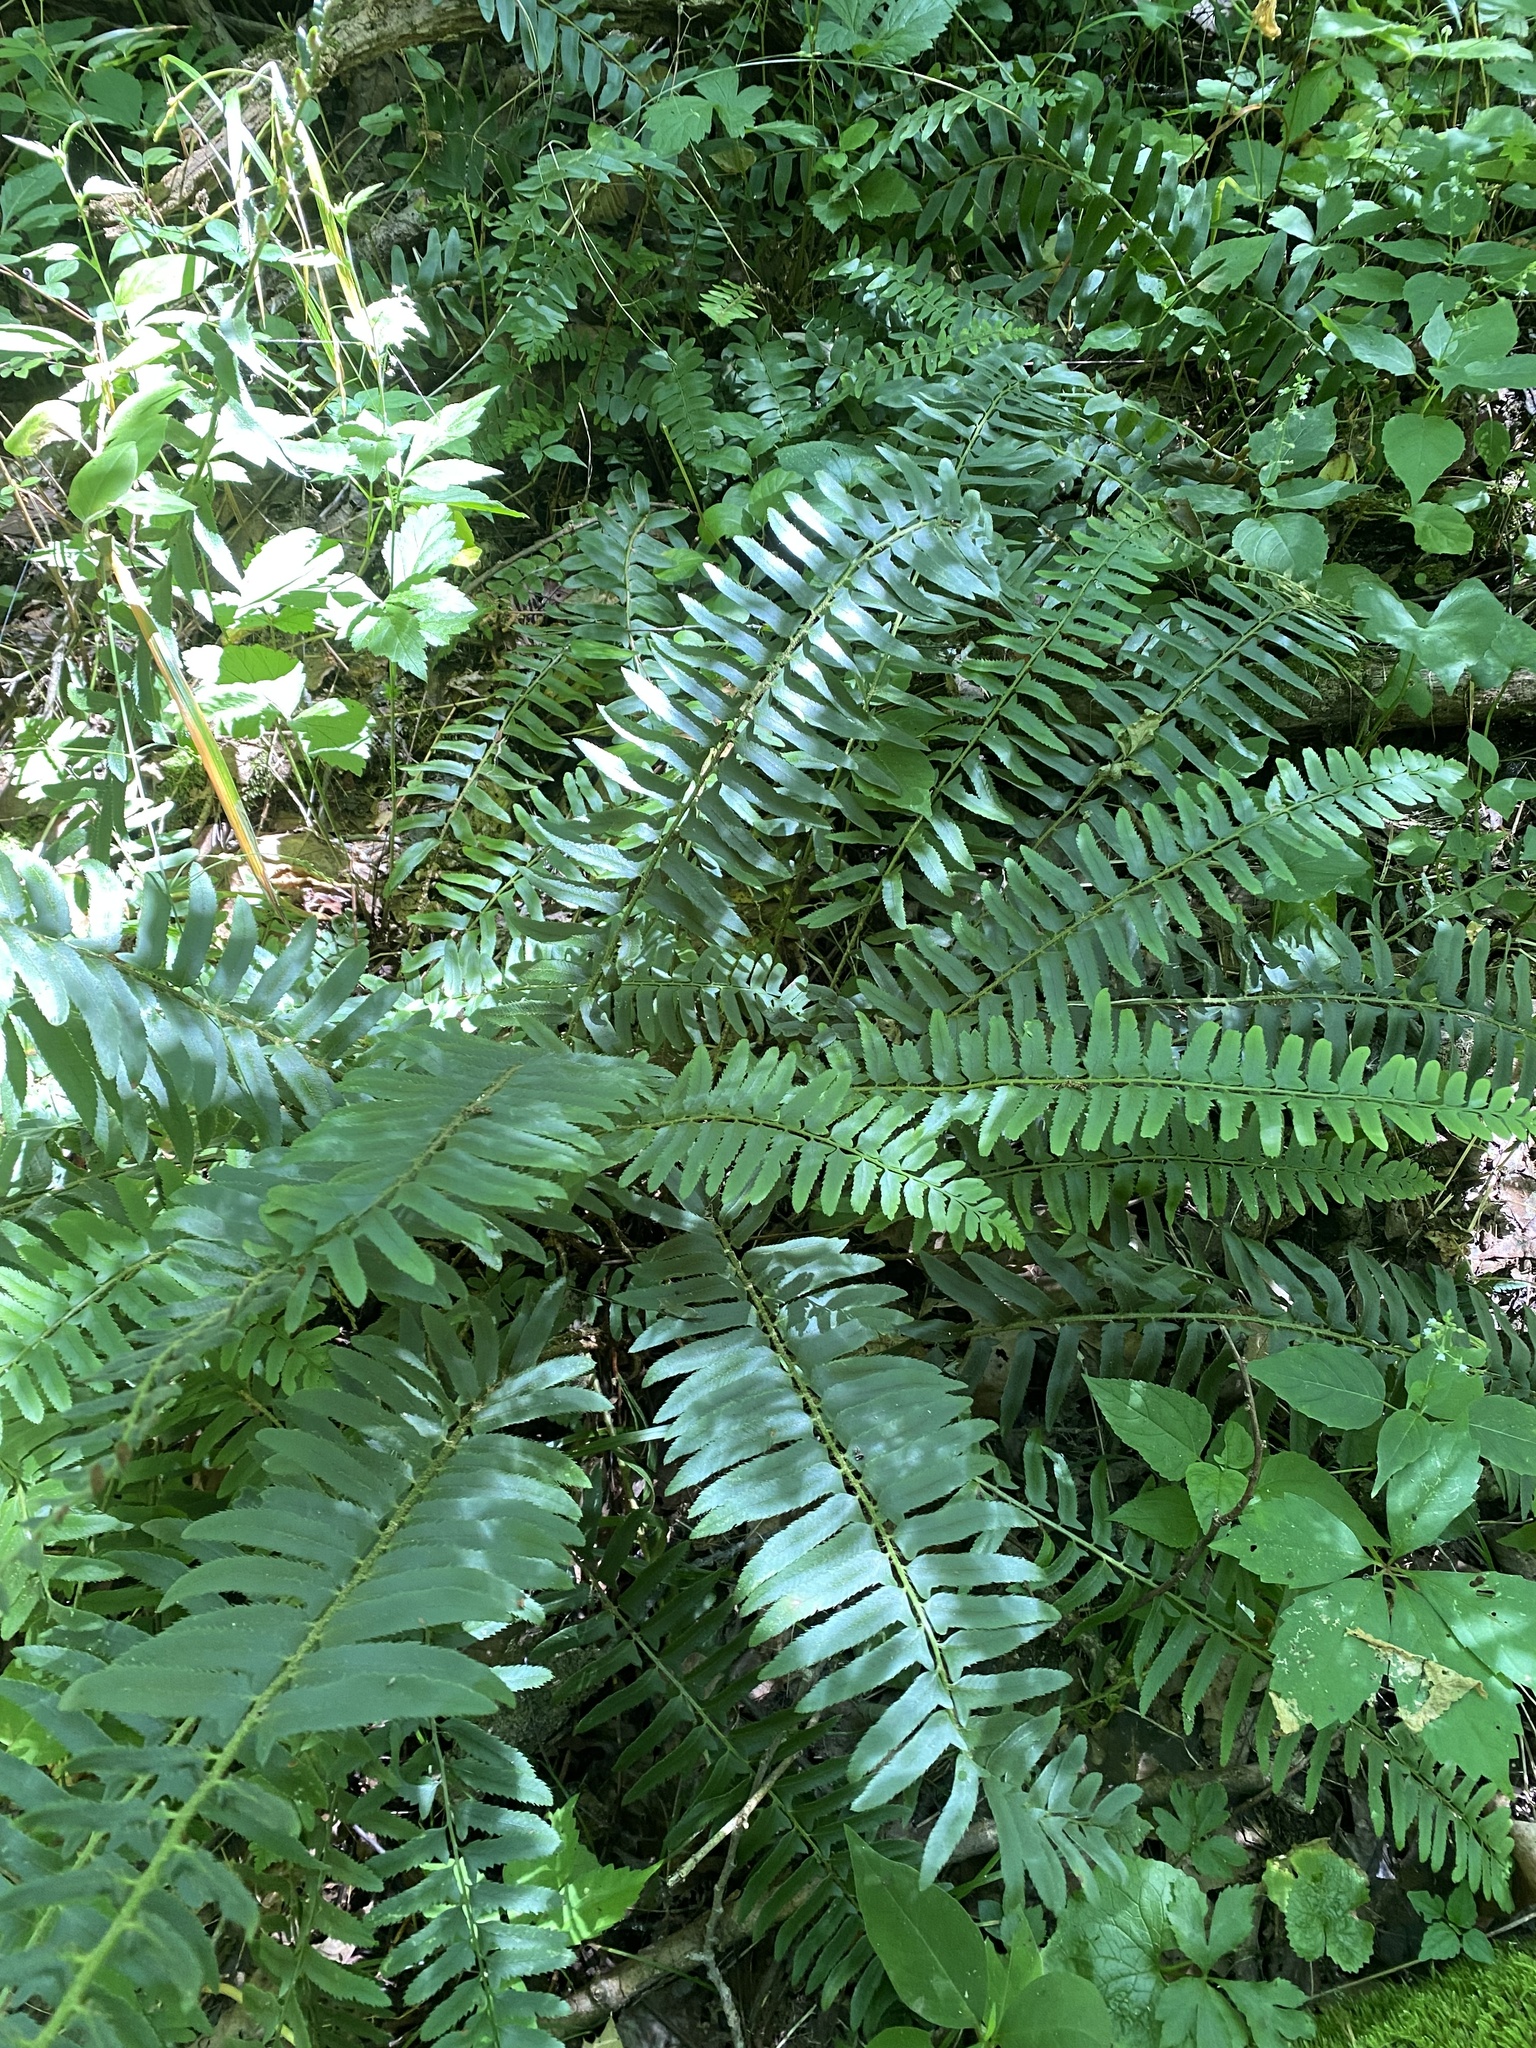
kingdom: Plantae
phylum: Tracheophyta
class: Polypodiopsida
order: Polypodiales
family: Dryopteridaceae
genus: Polystichum
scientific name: Polystichum acrostichoides
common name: Christmas fern
